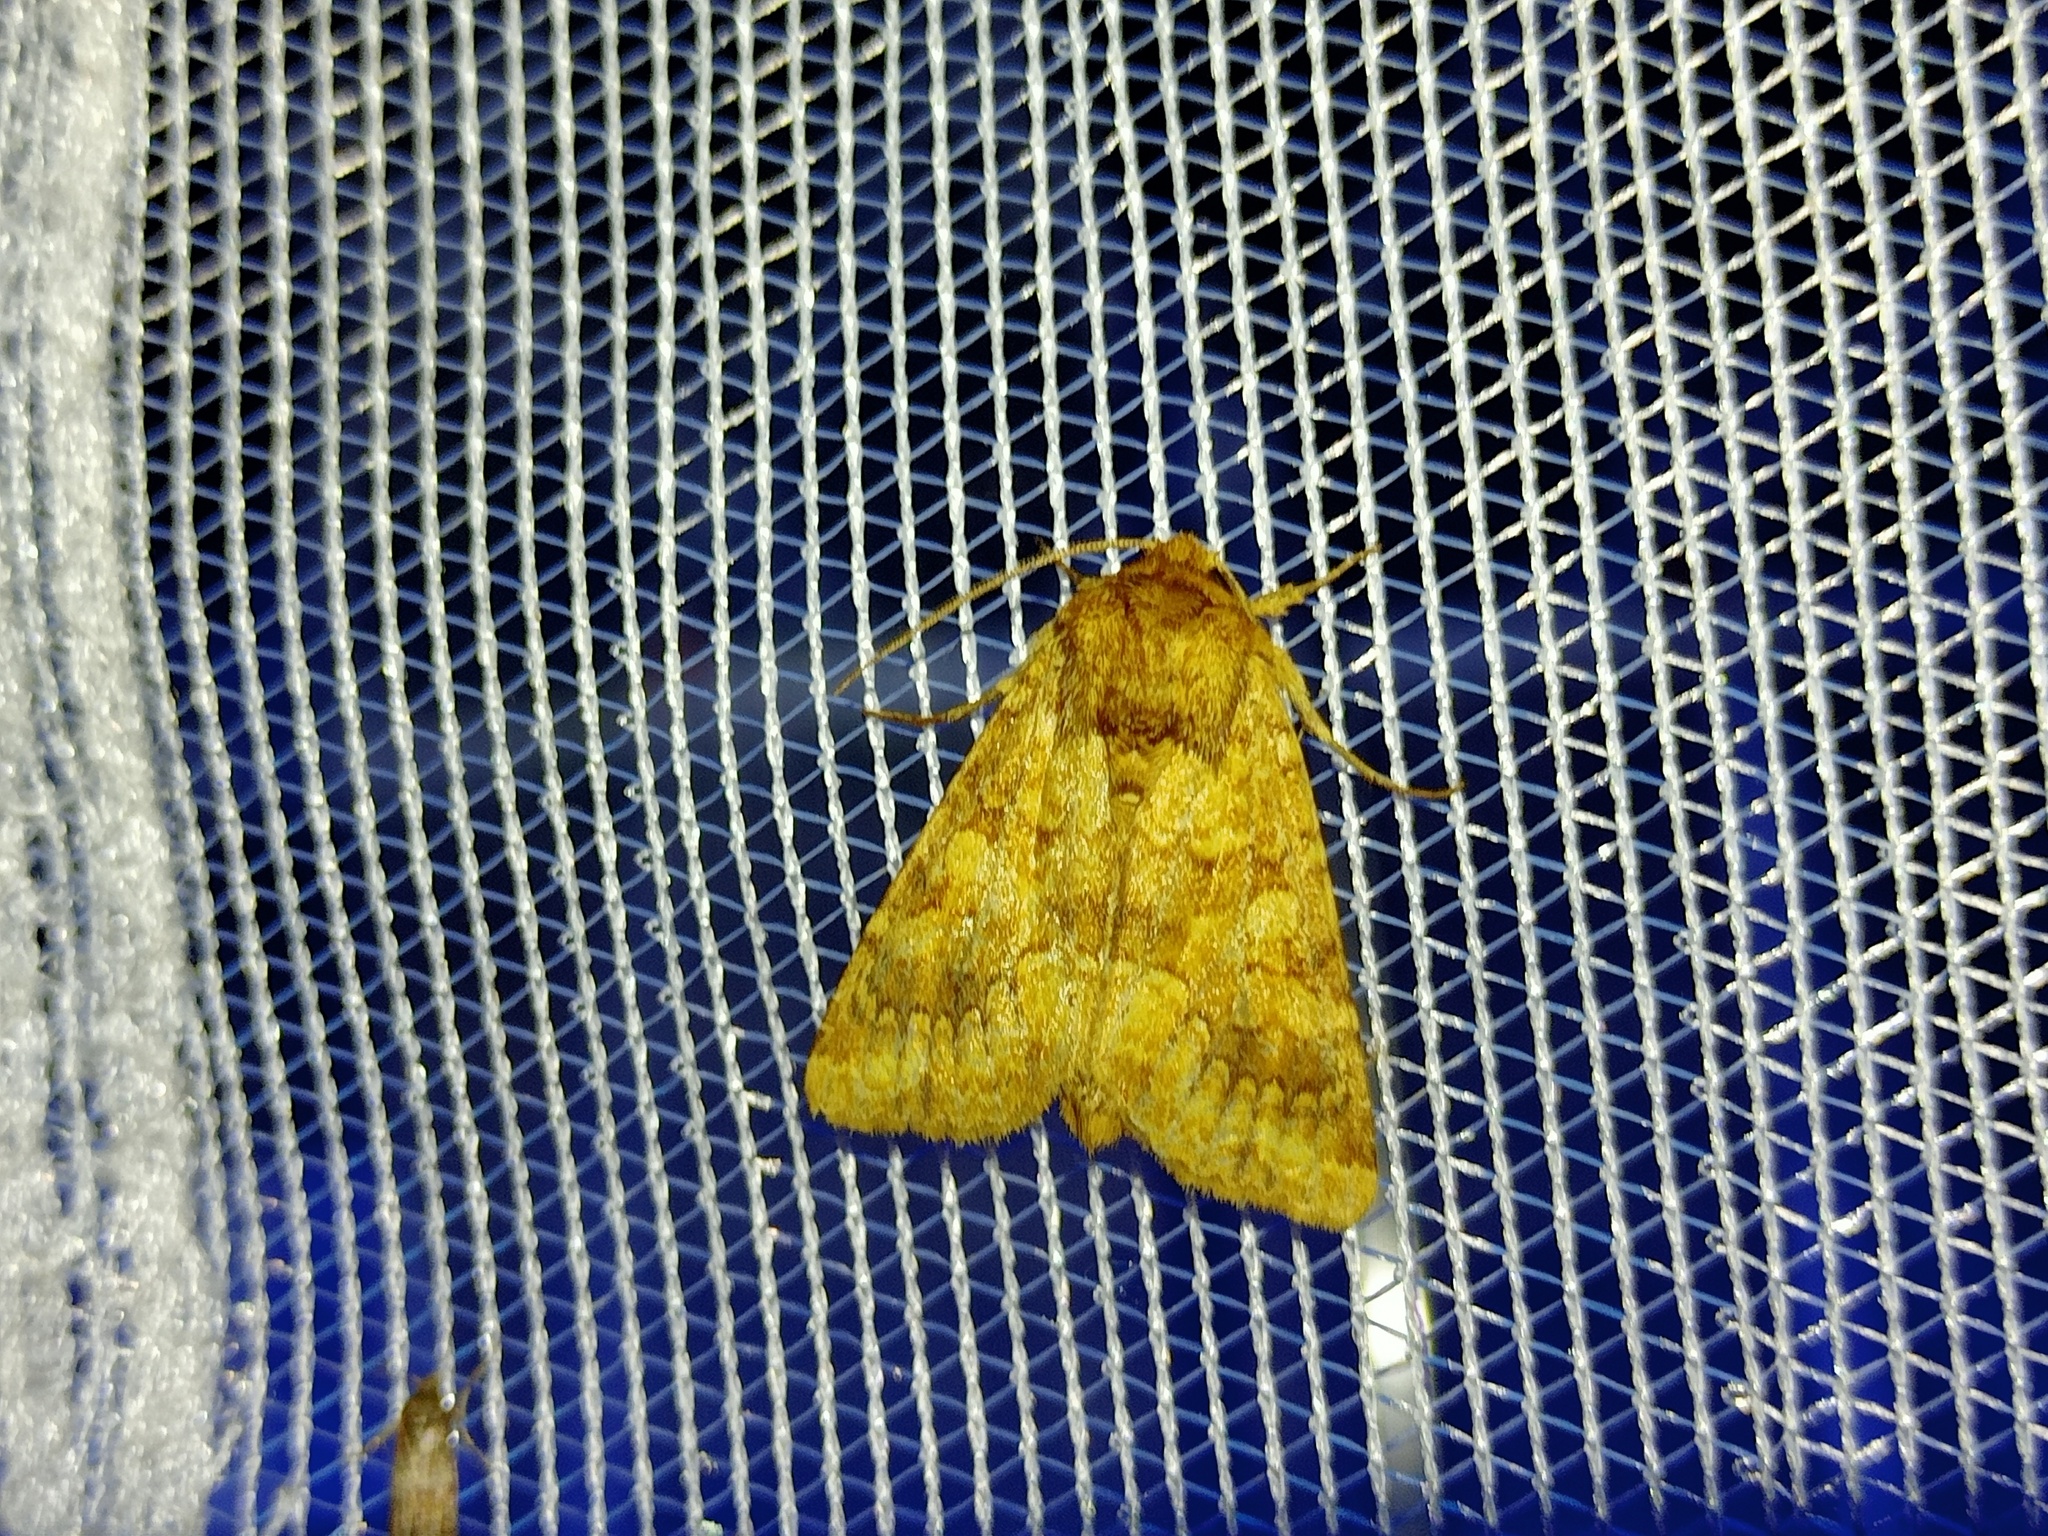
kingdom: Animalia
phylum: Arthropoda
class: Insecta
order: Lepidoptera
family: Noctuidae
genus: Conisania
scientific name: Conisania luteago
